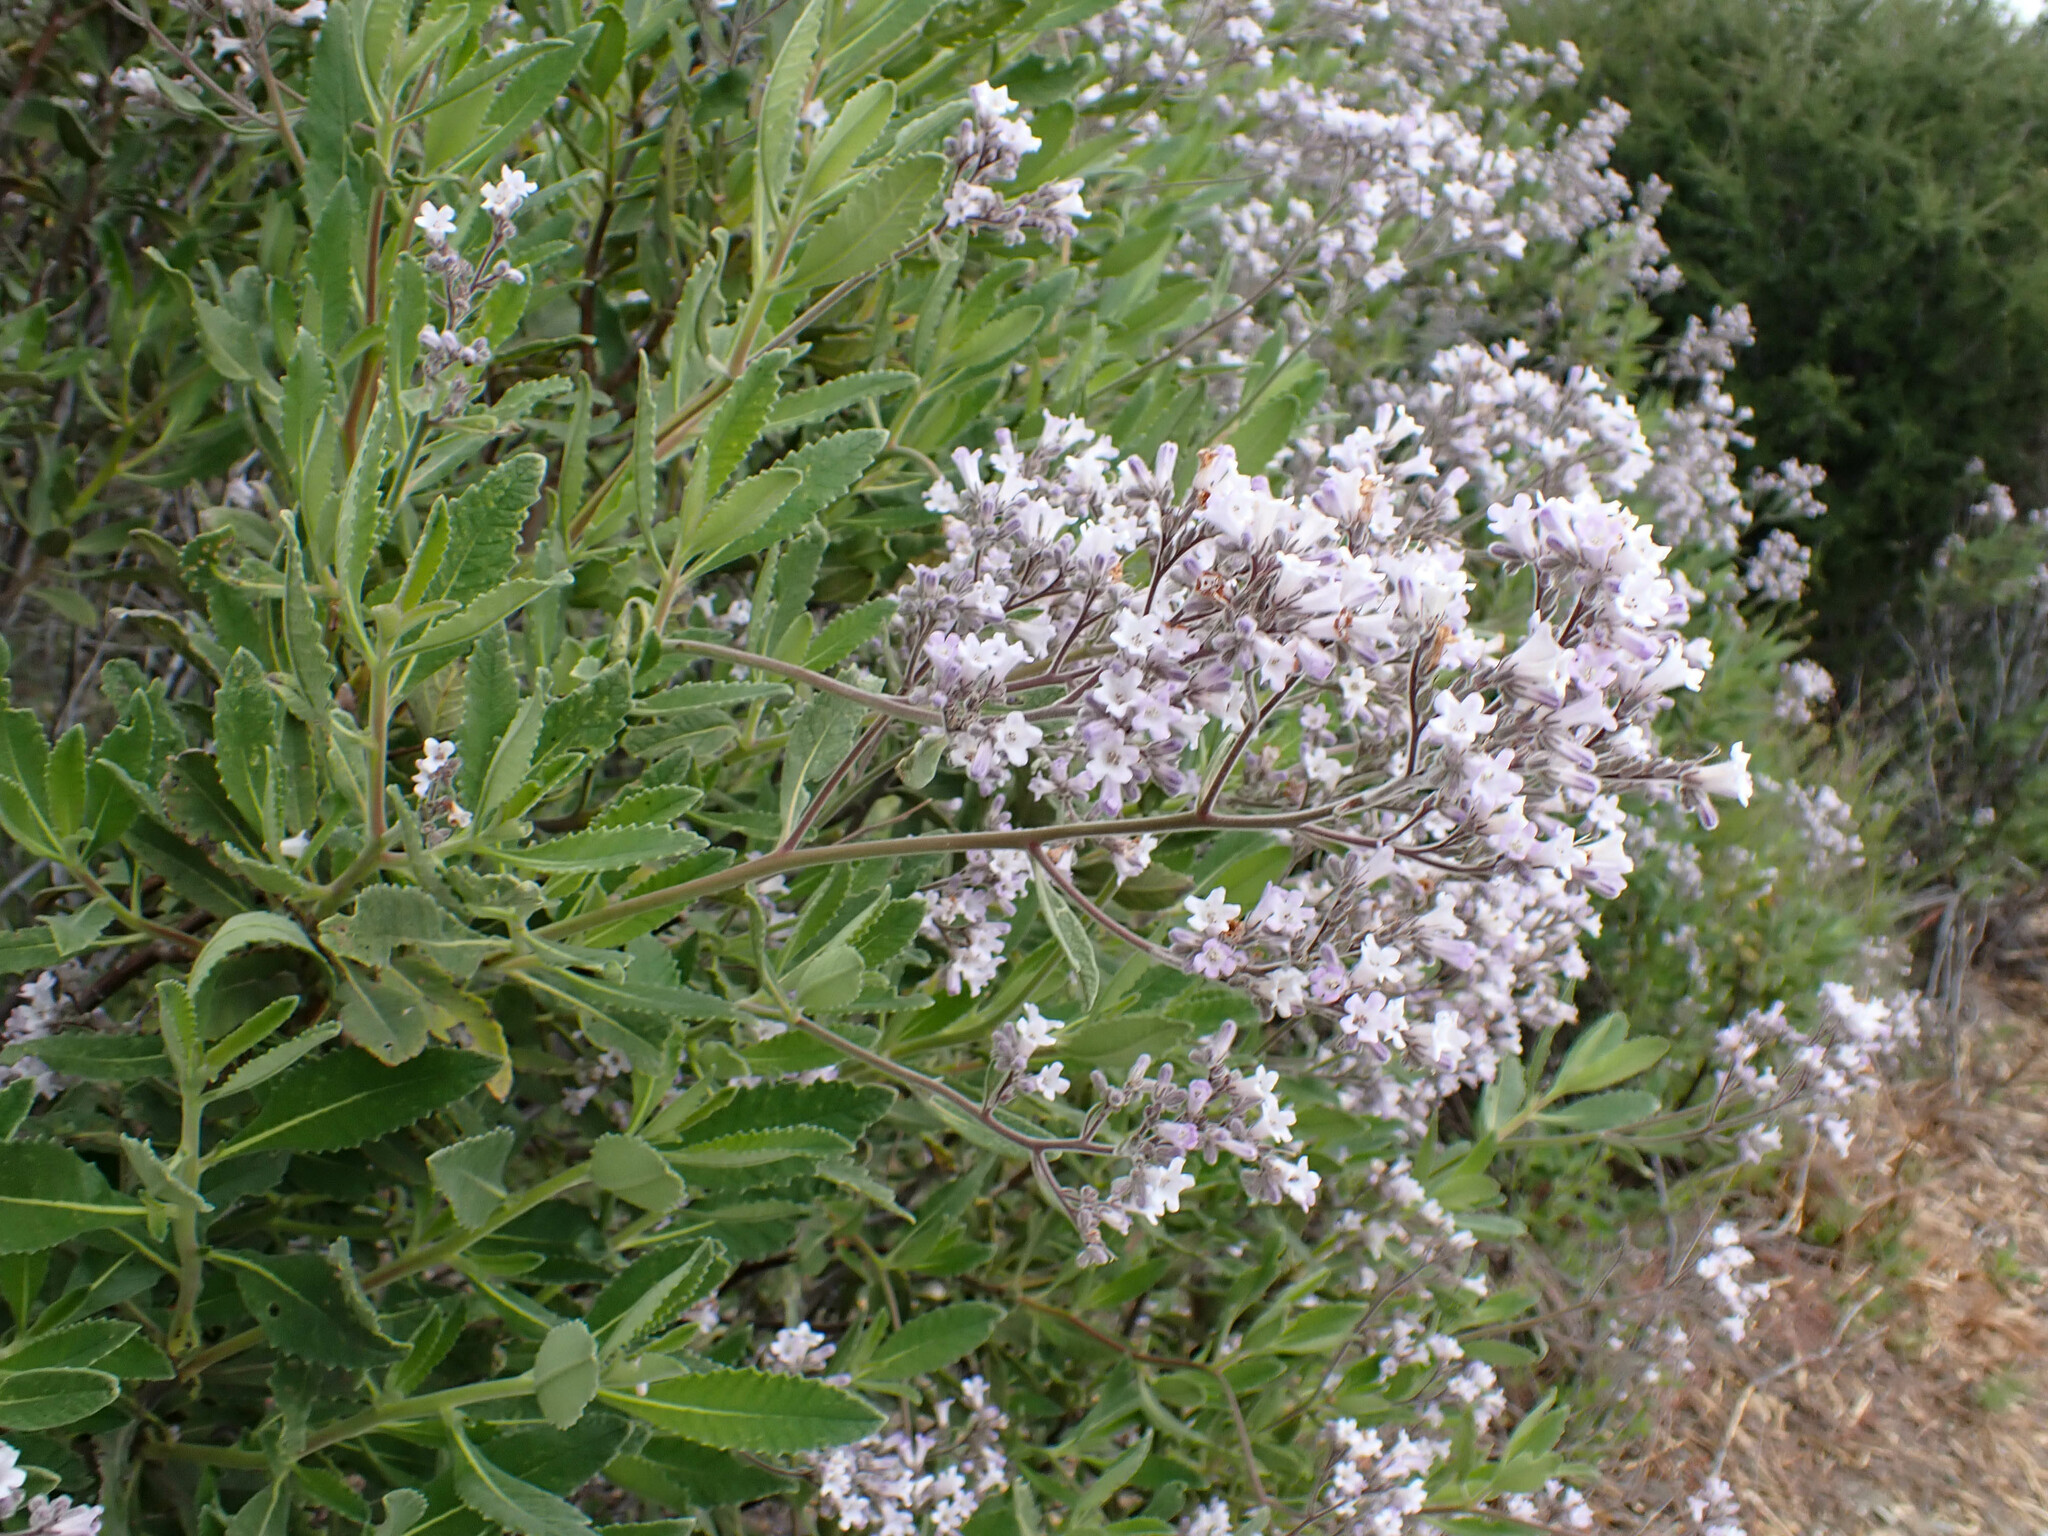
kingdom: Plantae
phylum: Tracheophyta
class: Magnoliopsida
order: Boraginales
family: Namaceae
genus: Eriodictyon
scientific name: Eriodictyon crassifolium
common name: Thick-leaf yerba-santa
